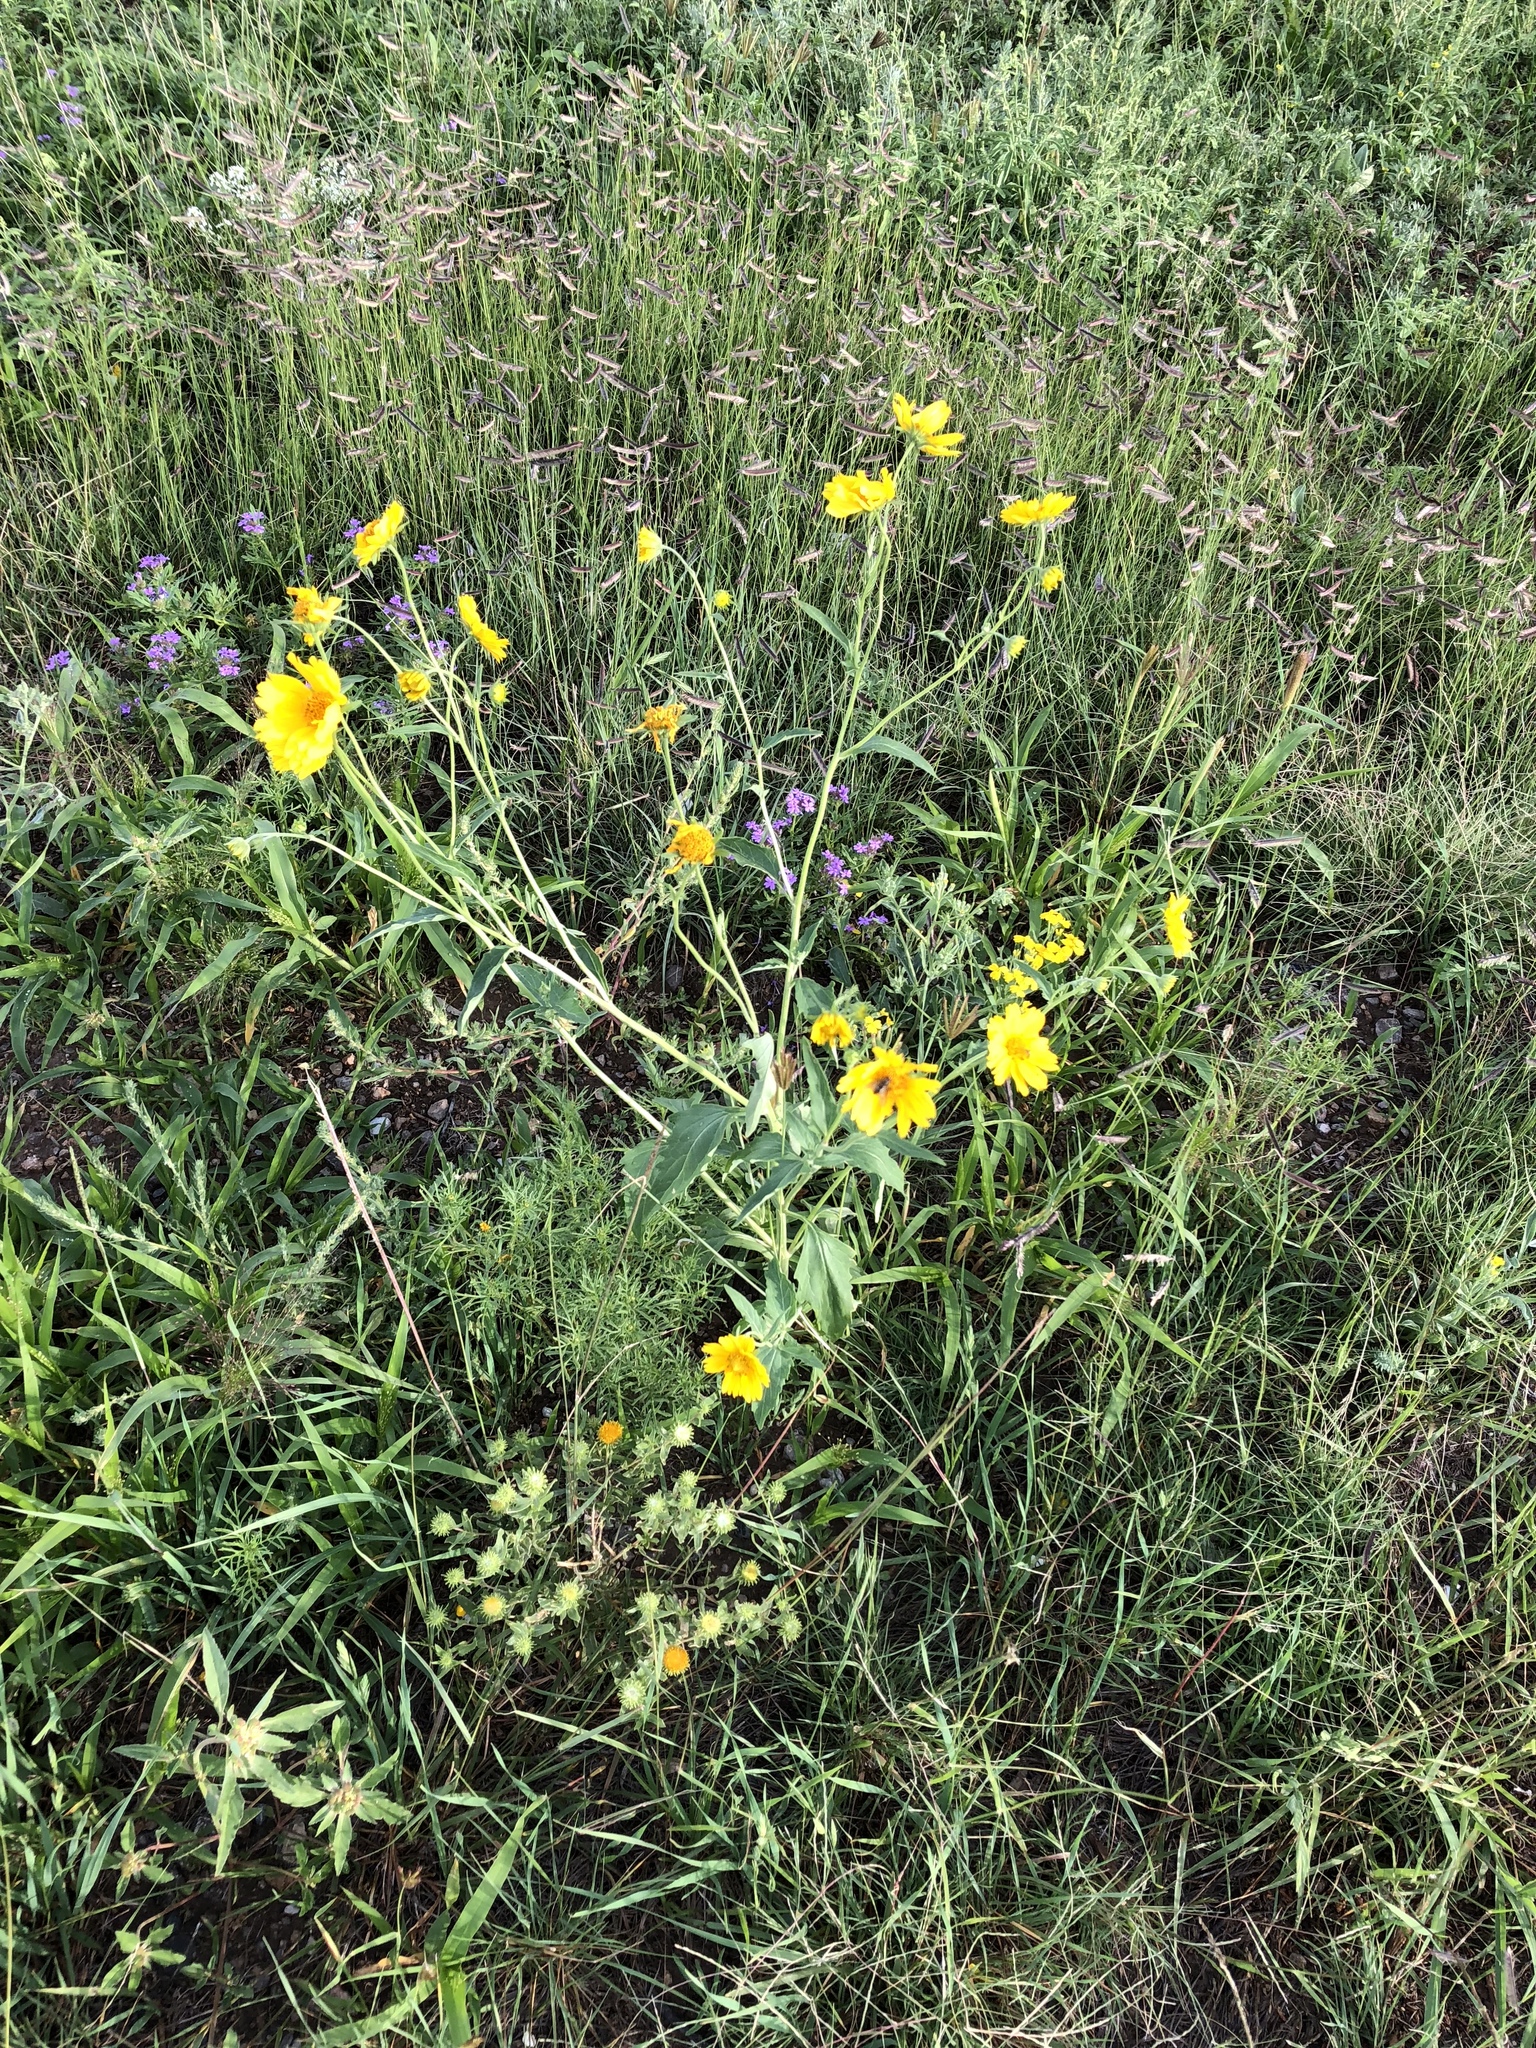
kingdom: Plantae
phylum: Tracheophyta
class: Magnoliopsida
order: Asterales
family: Asteraceae
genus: Verbesina
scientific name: Verbesina encelioides
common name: Golden crownbeard
